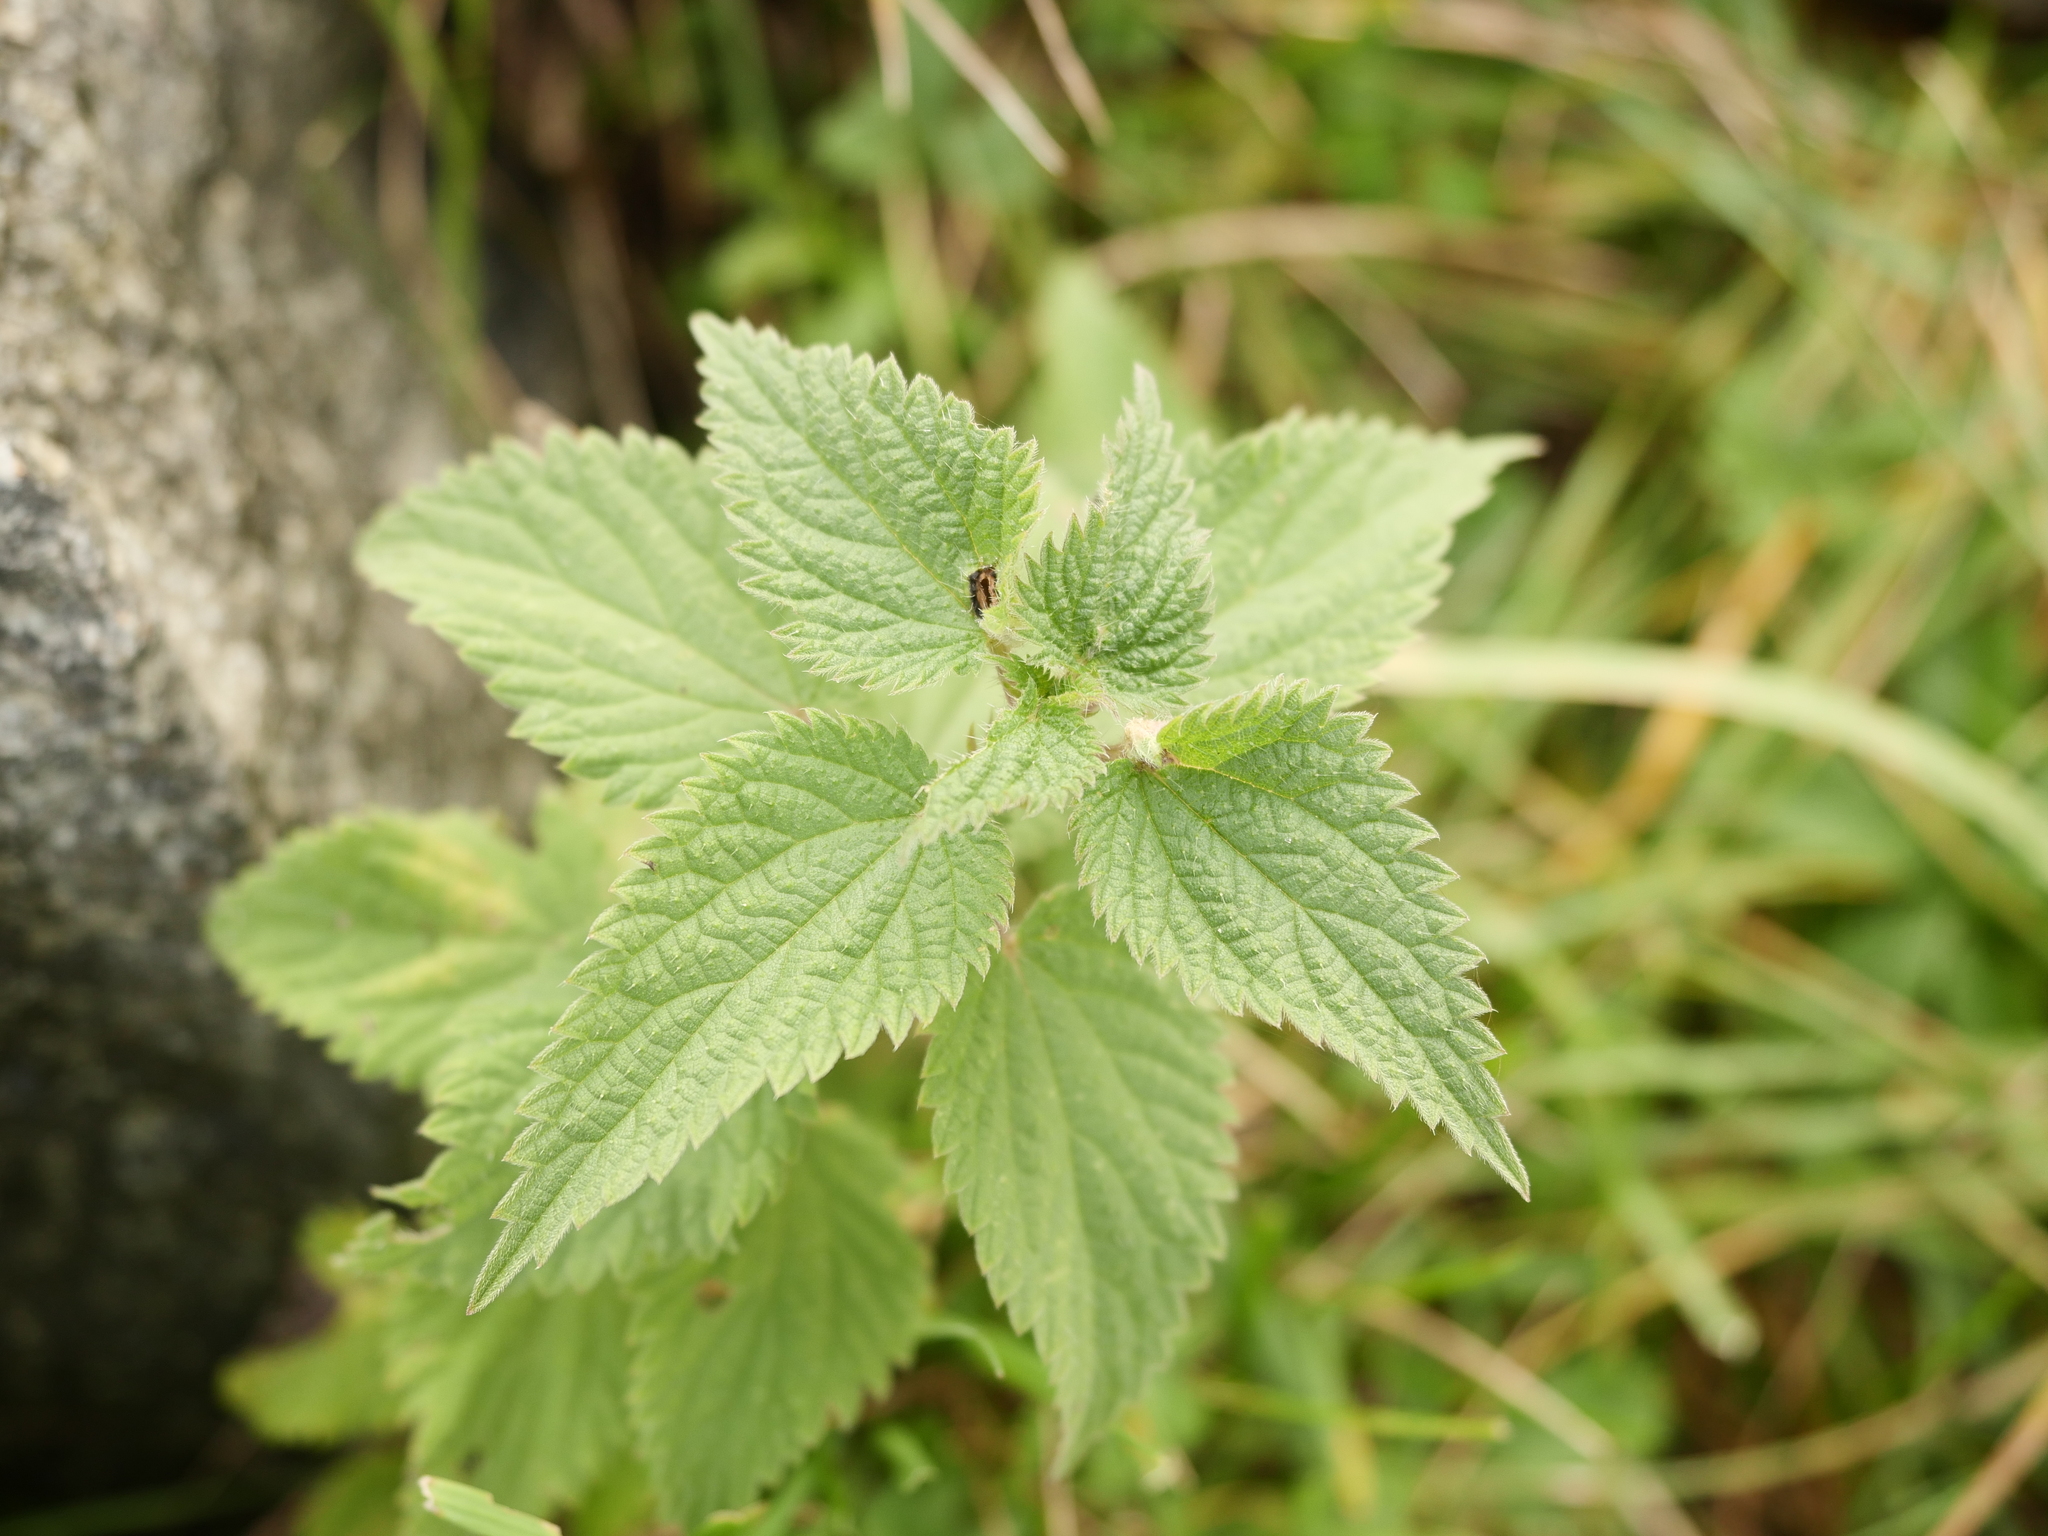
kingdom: Plantae
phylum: Tracheophyta
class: Magnoliopsida
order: Rosales
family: Urticaceae
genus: Urtica
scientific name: Urtica dioica
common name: Common nettle
